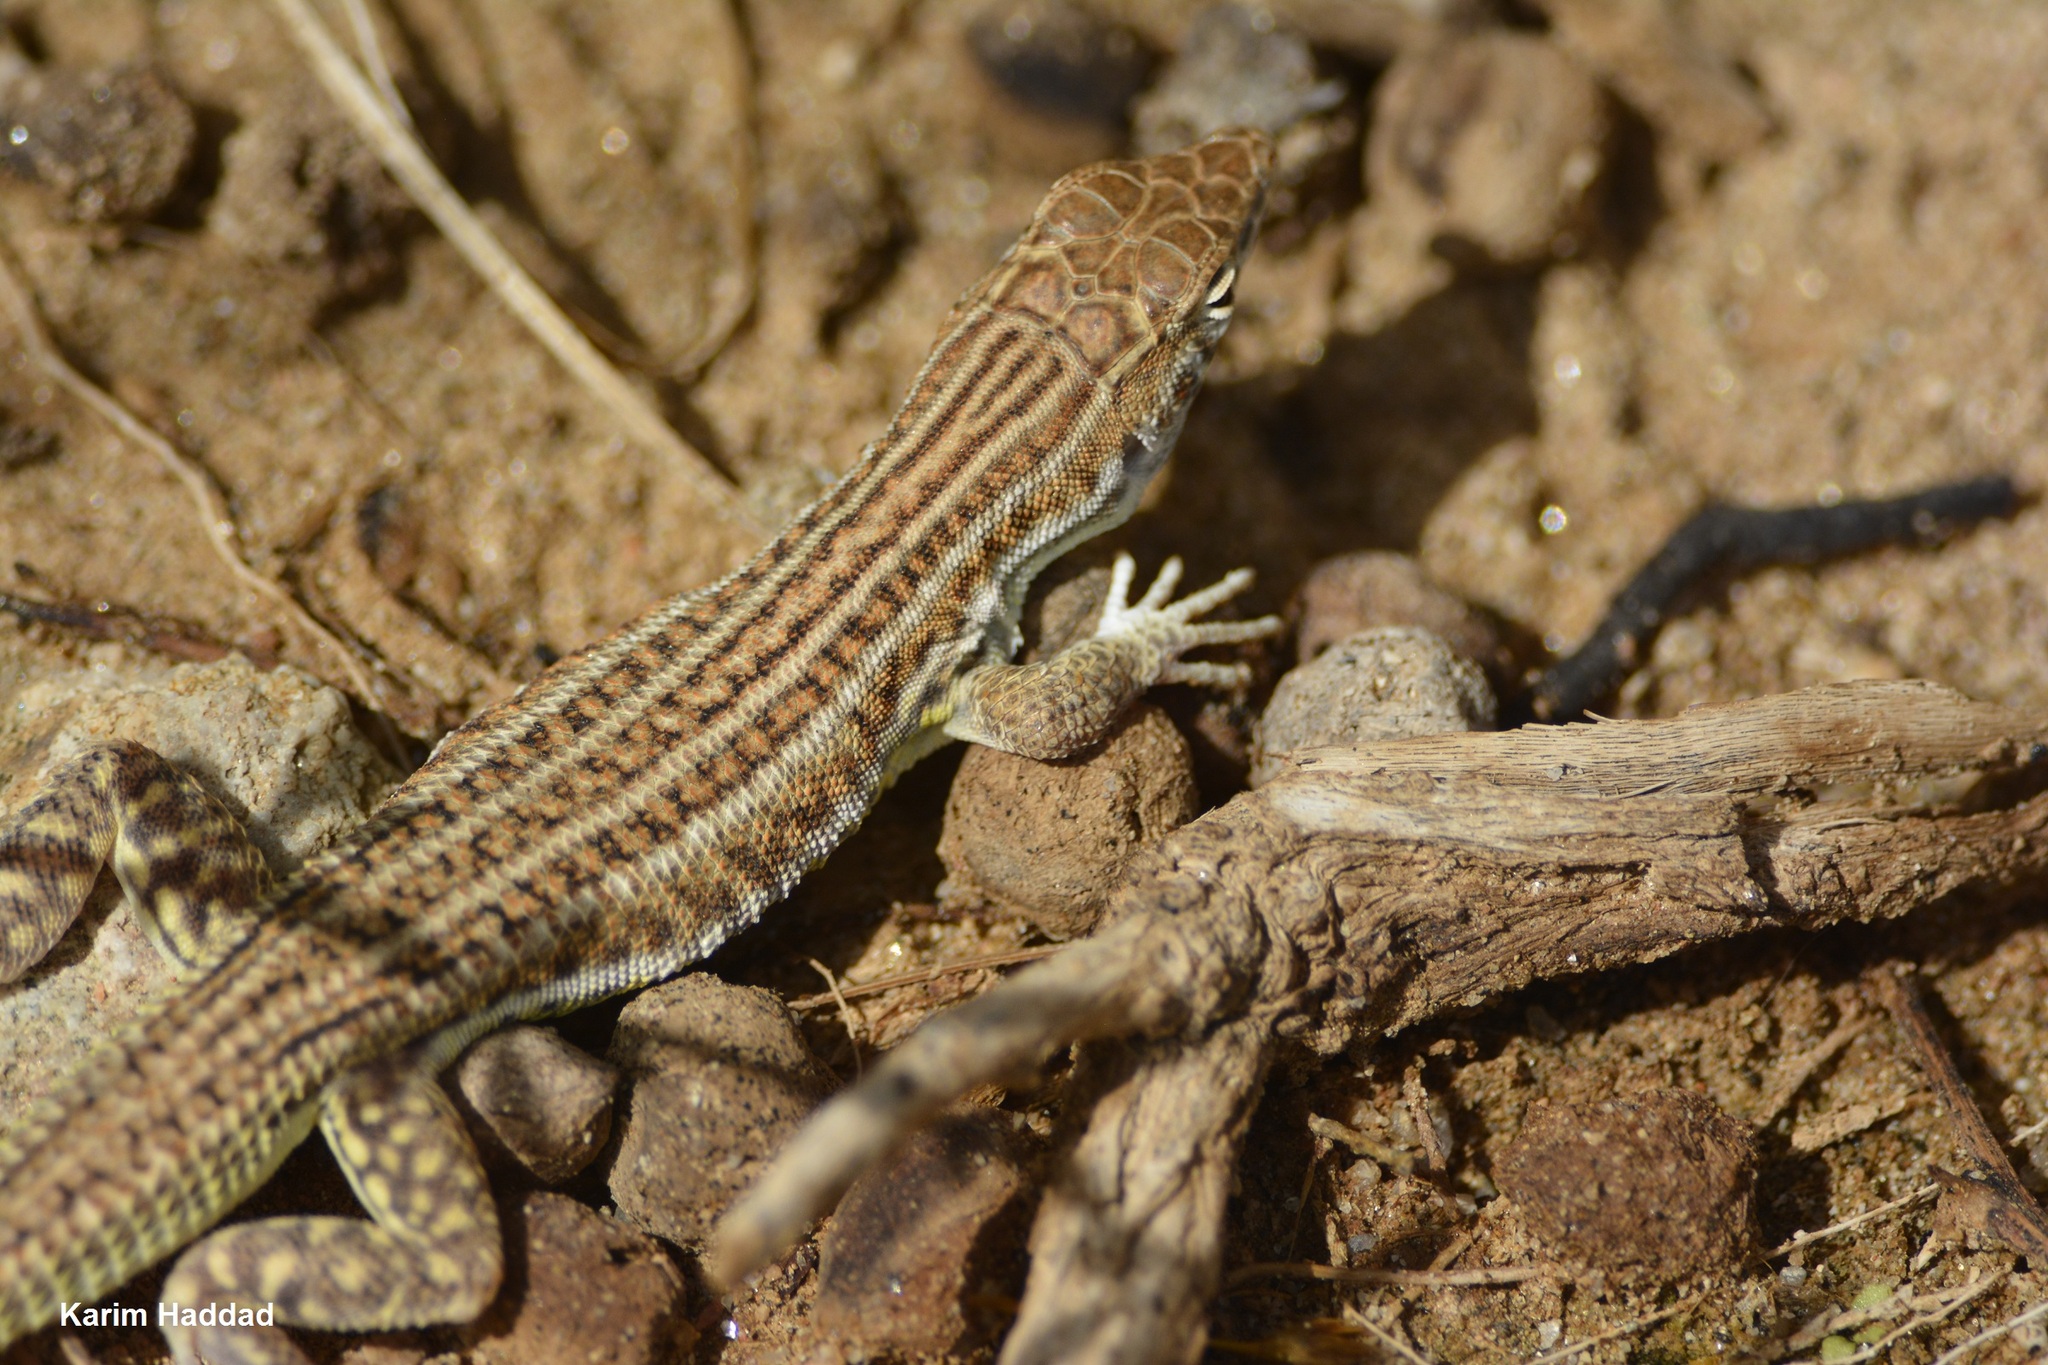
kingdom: Animalia
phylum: Chordata
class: Squamata
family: Lacertidae
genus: Acanthodactylus
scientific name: Acanthodactylus boskianus
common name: Bosc’s fringe-toed lizard
